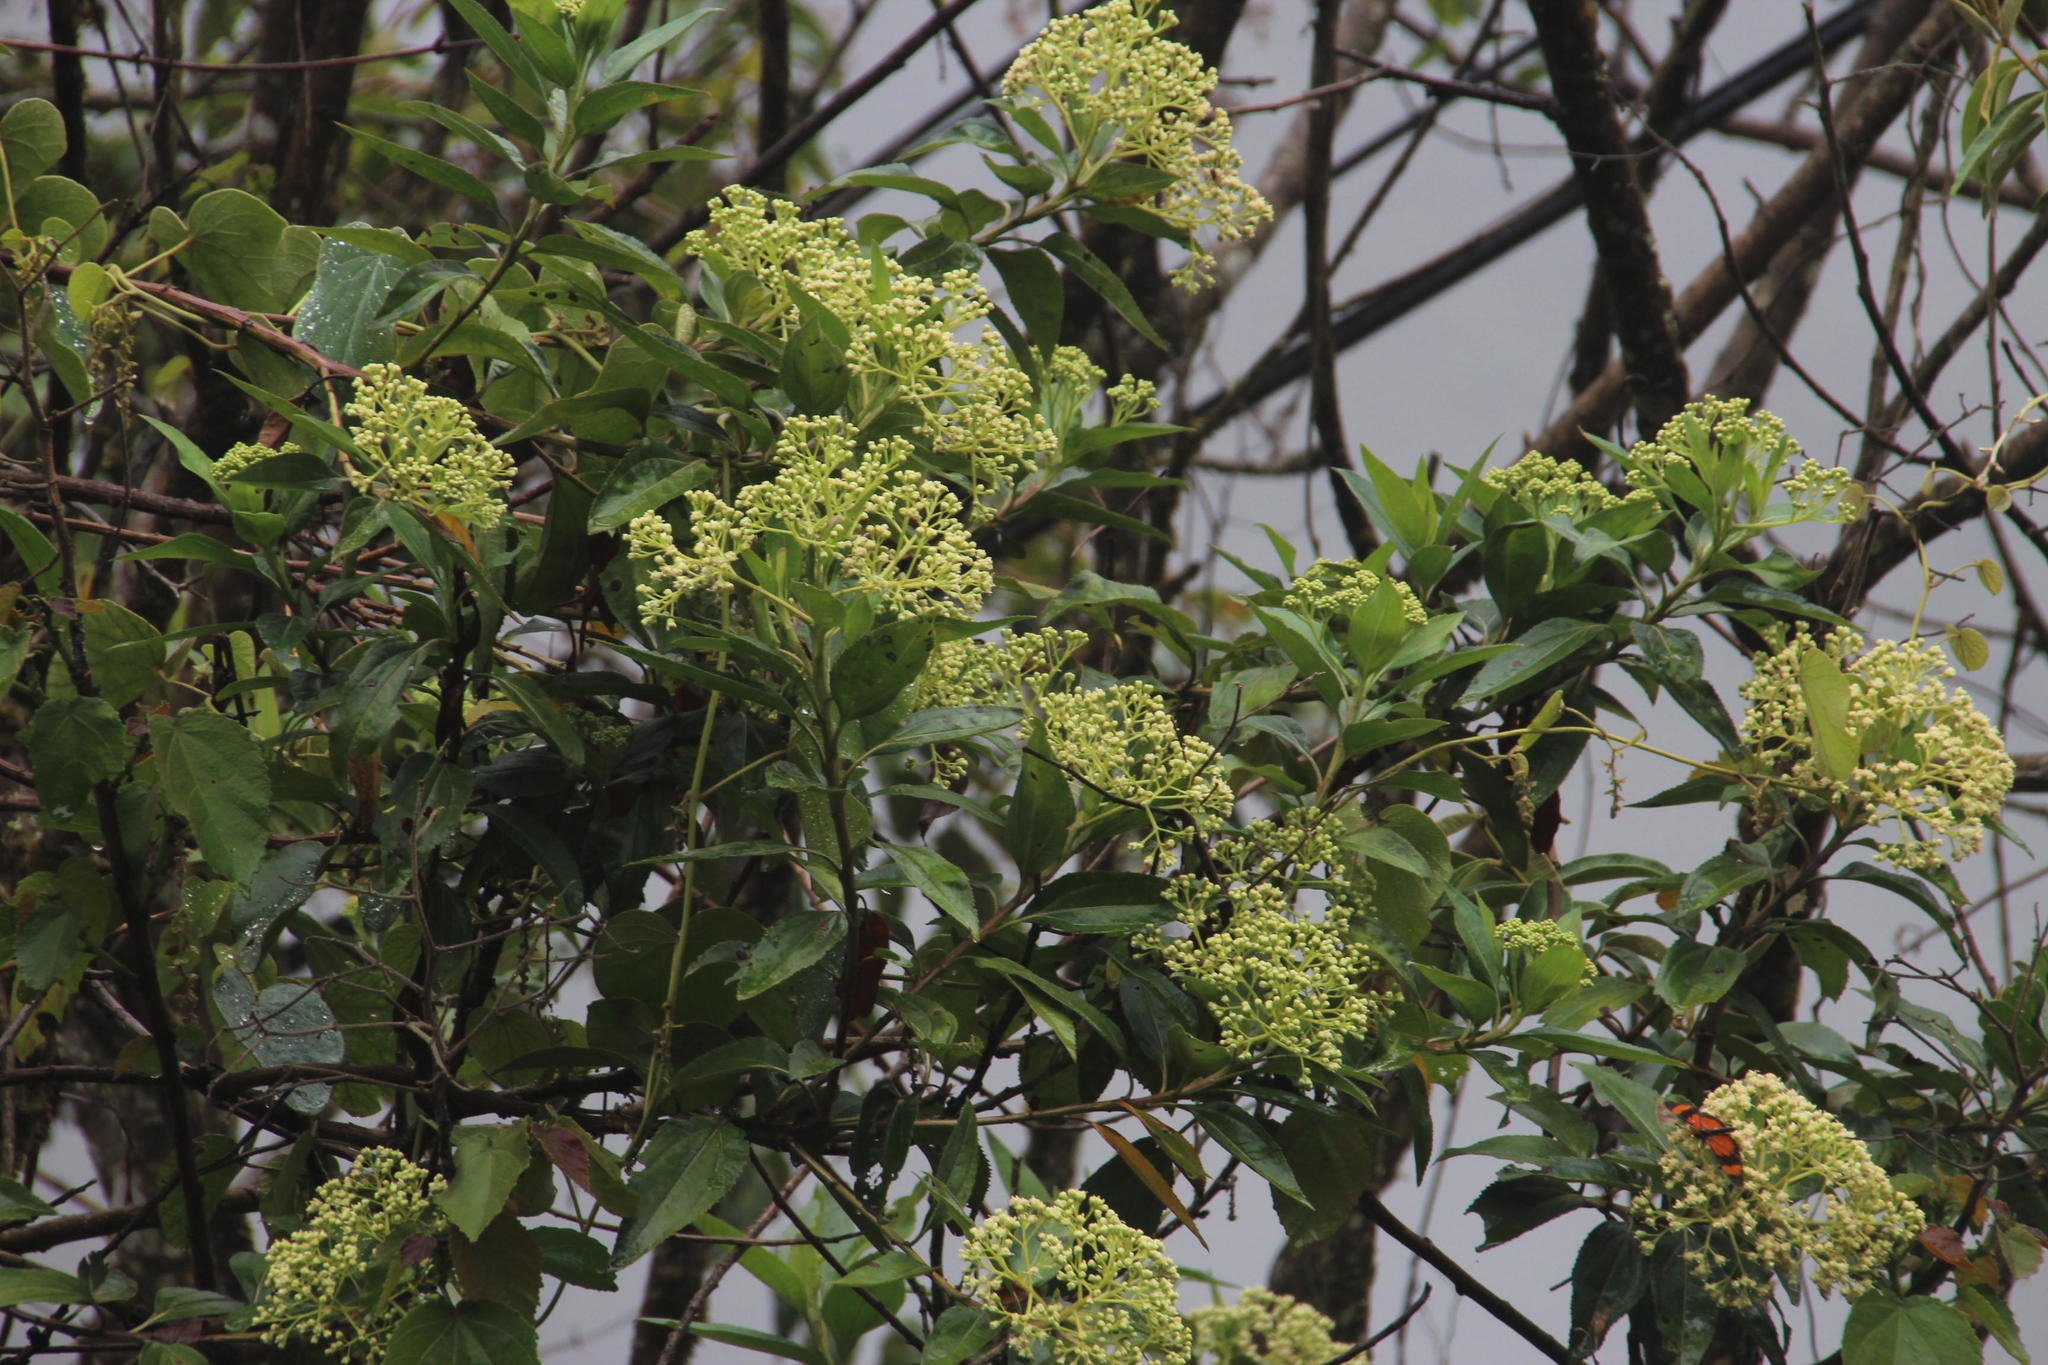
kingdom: Plantae
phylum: Tracheophyta
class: Magnoliopsida
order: Asterales
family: Asteraceae
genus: Baccharis
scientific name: Baccharis latifolia
